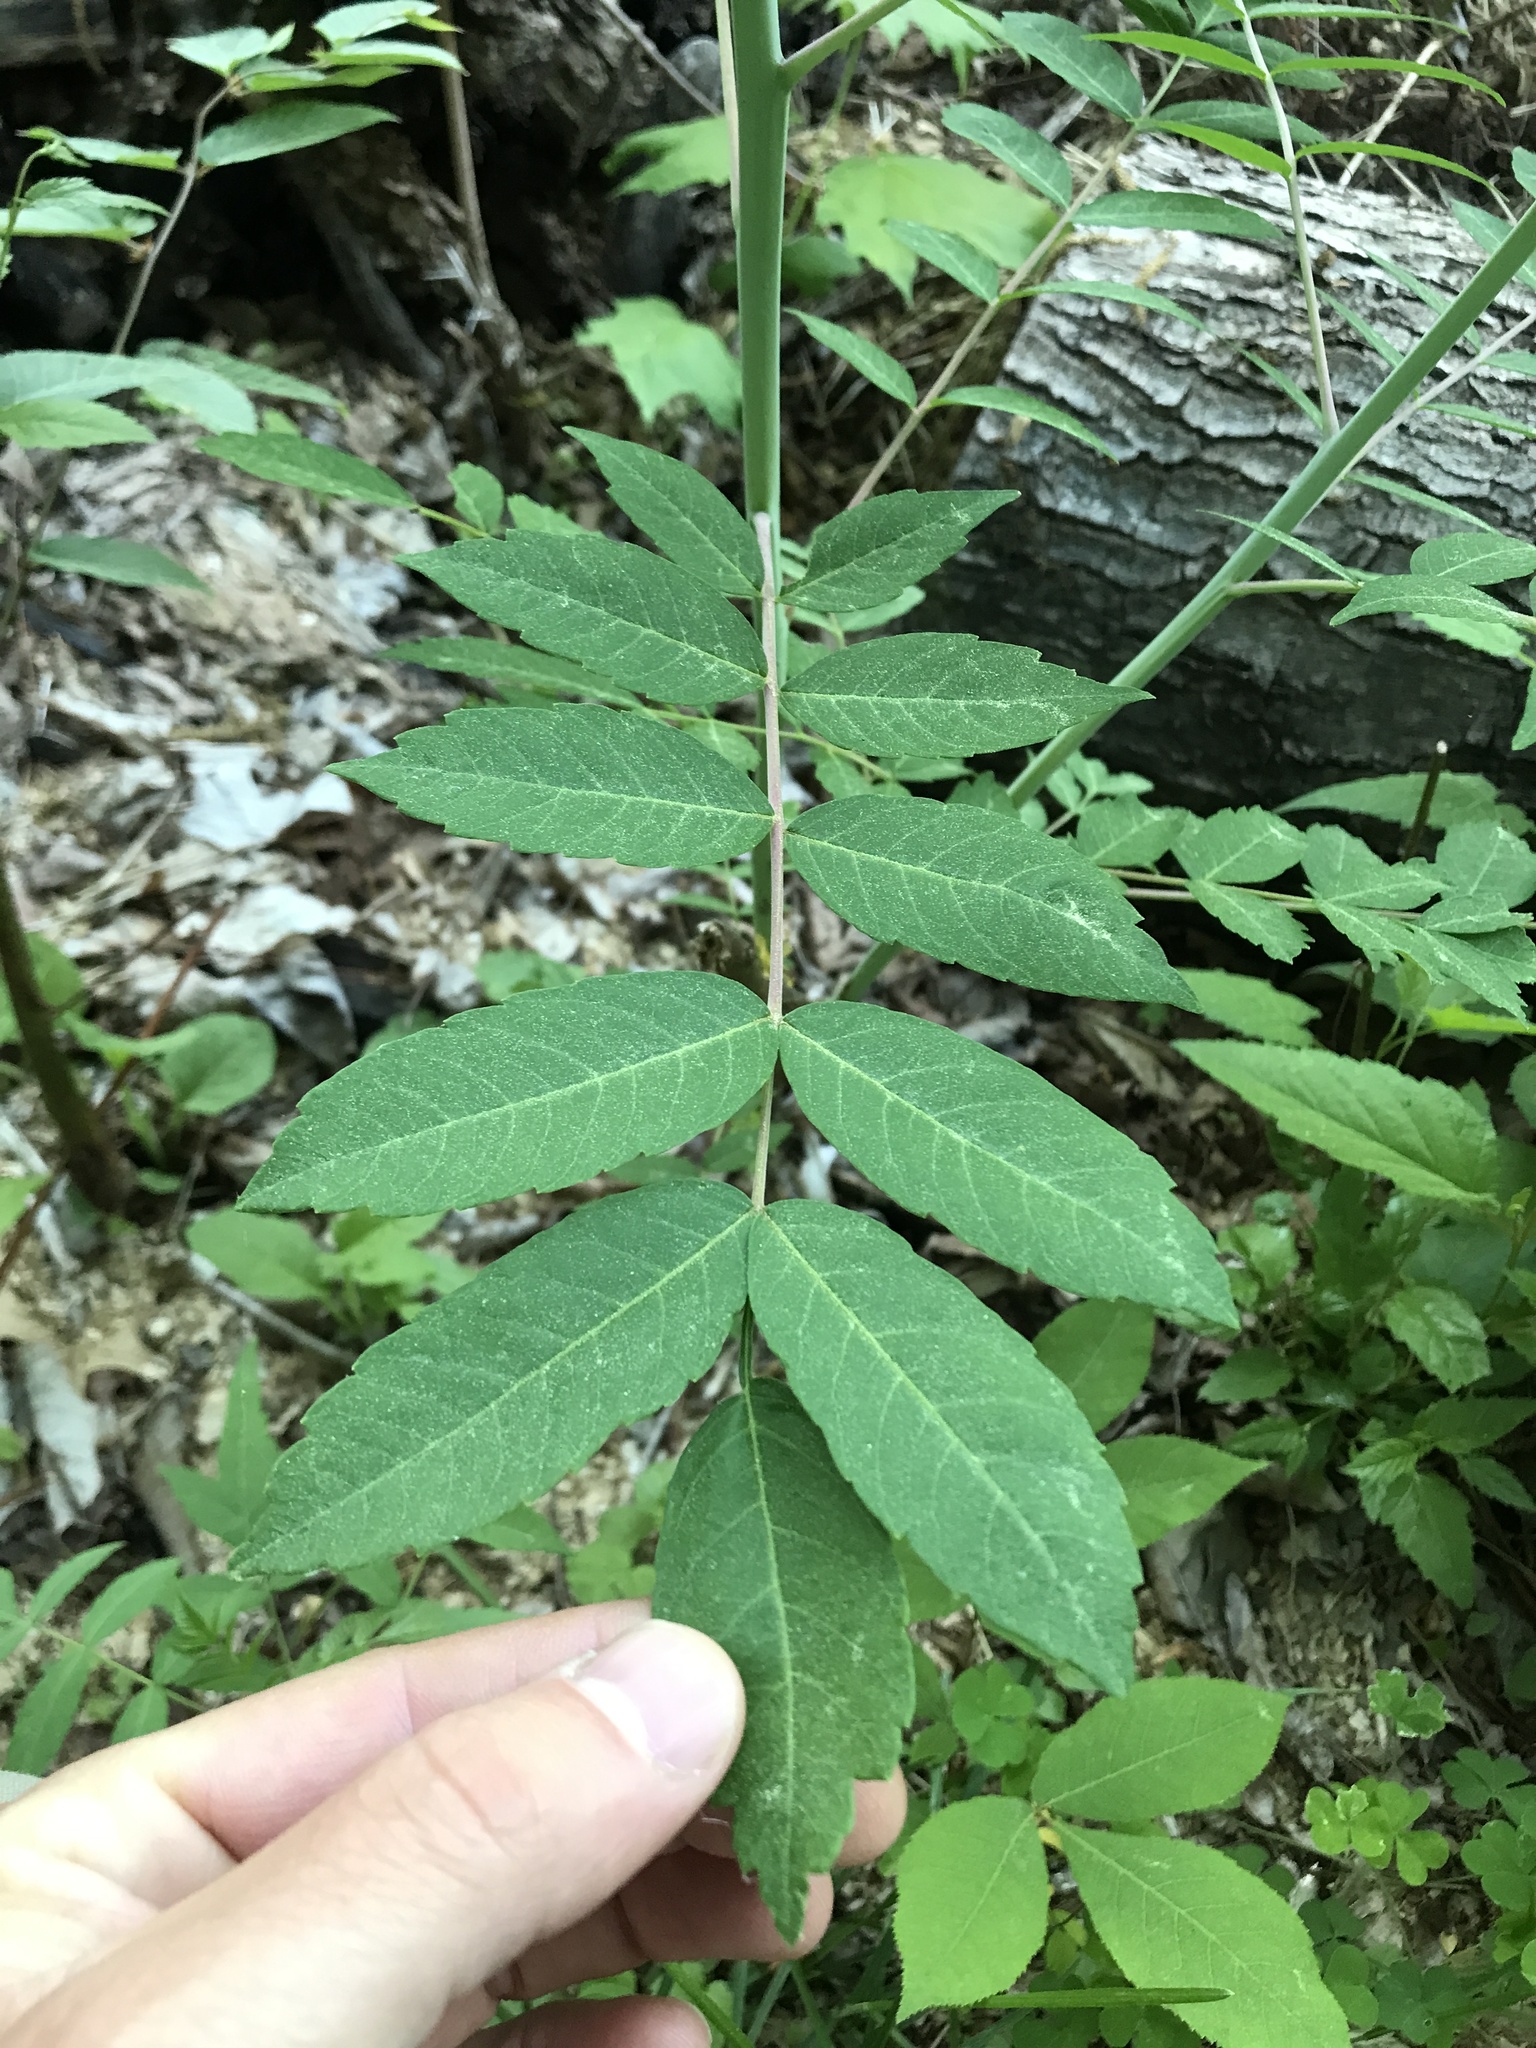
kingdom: Plantae
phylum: Tracheophyta
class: Magnoliopsida
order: Sapindales
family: Anacardiaceae
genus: Rhus
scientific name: Rhus glabra
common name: Scarlet sumac
